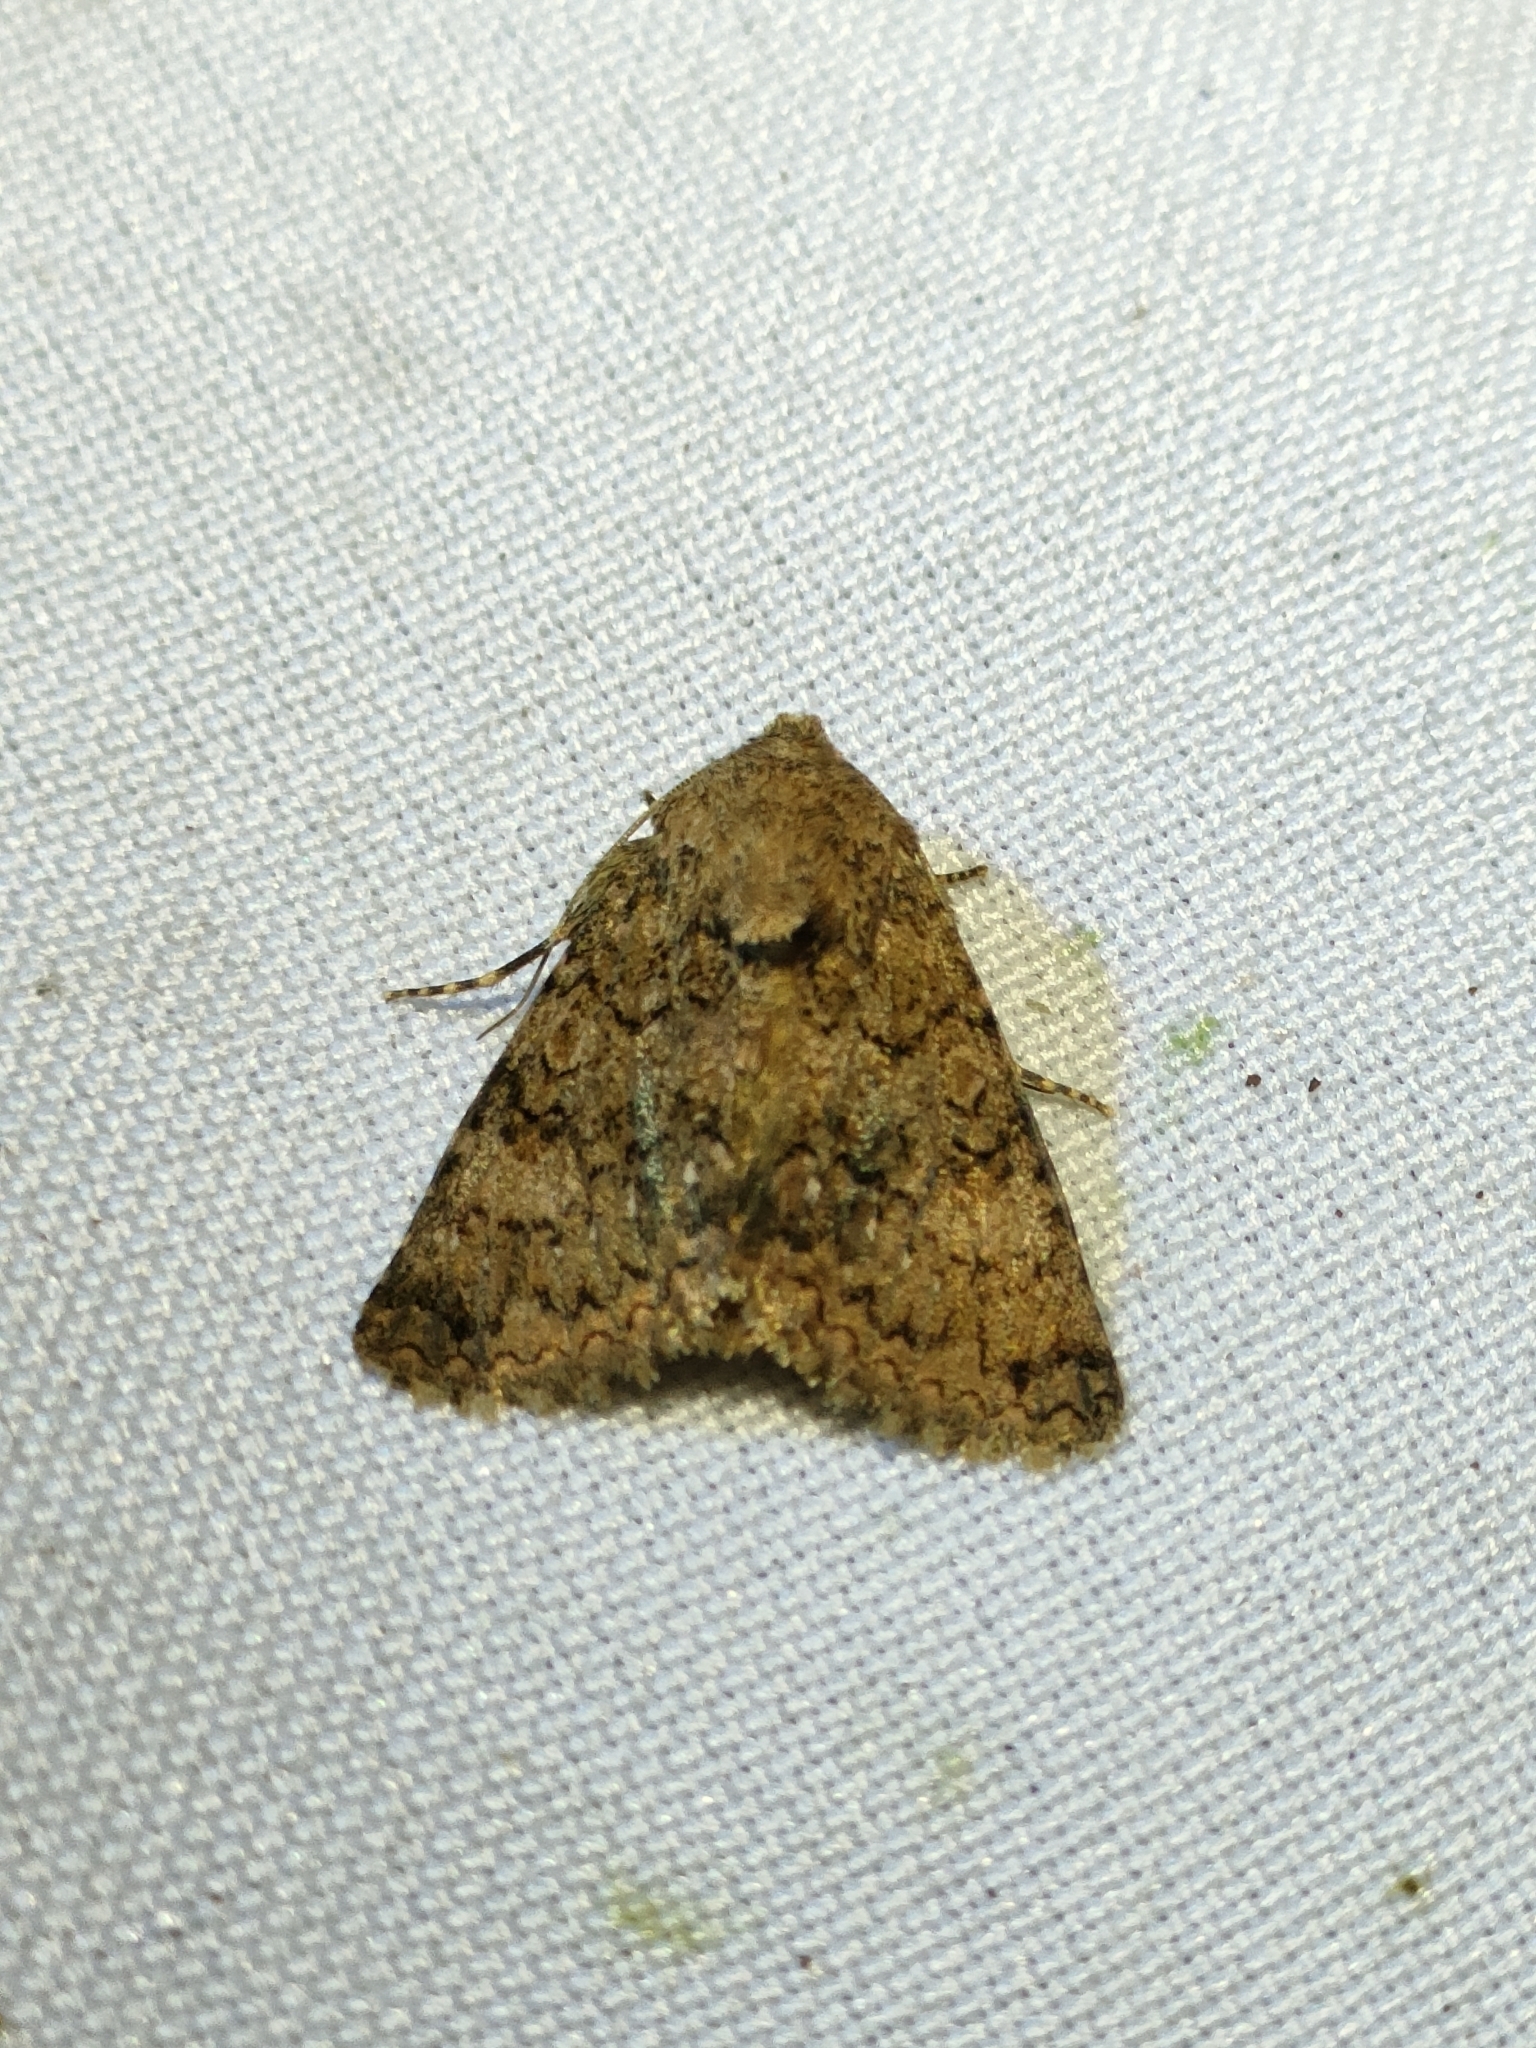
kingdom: Animalia
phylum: Arthropoda
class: Insecta
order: Lepidoptera
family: Noctuidae
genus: Recoropha
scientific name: Recoropha canteneri
